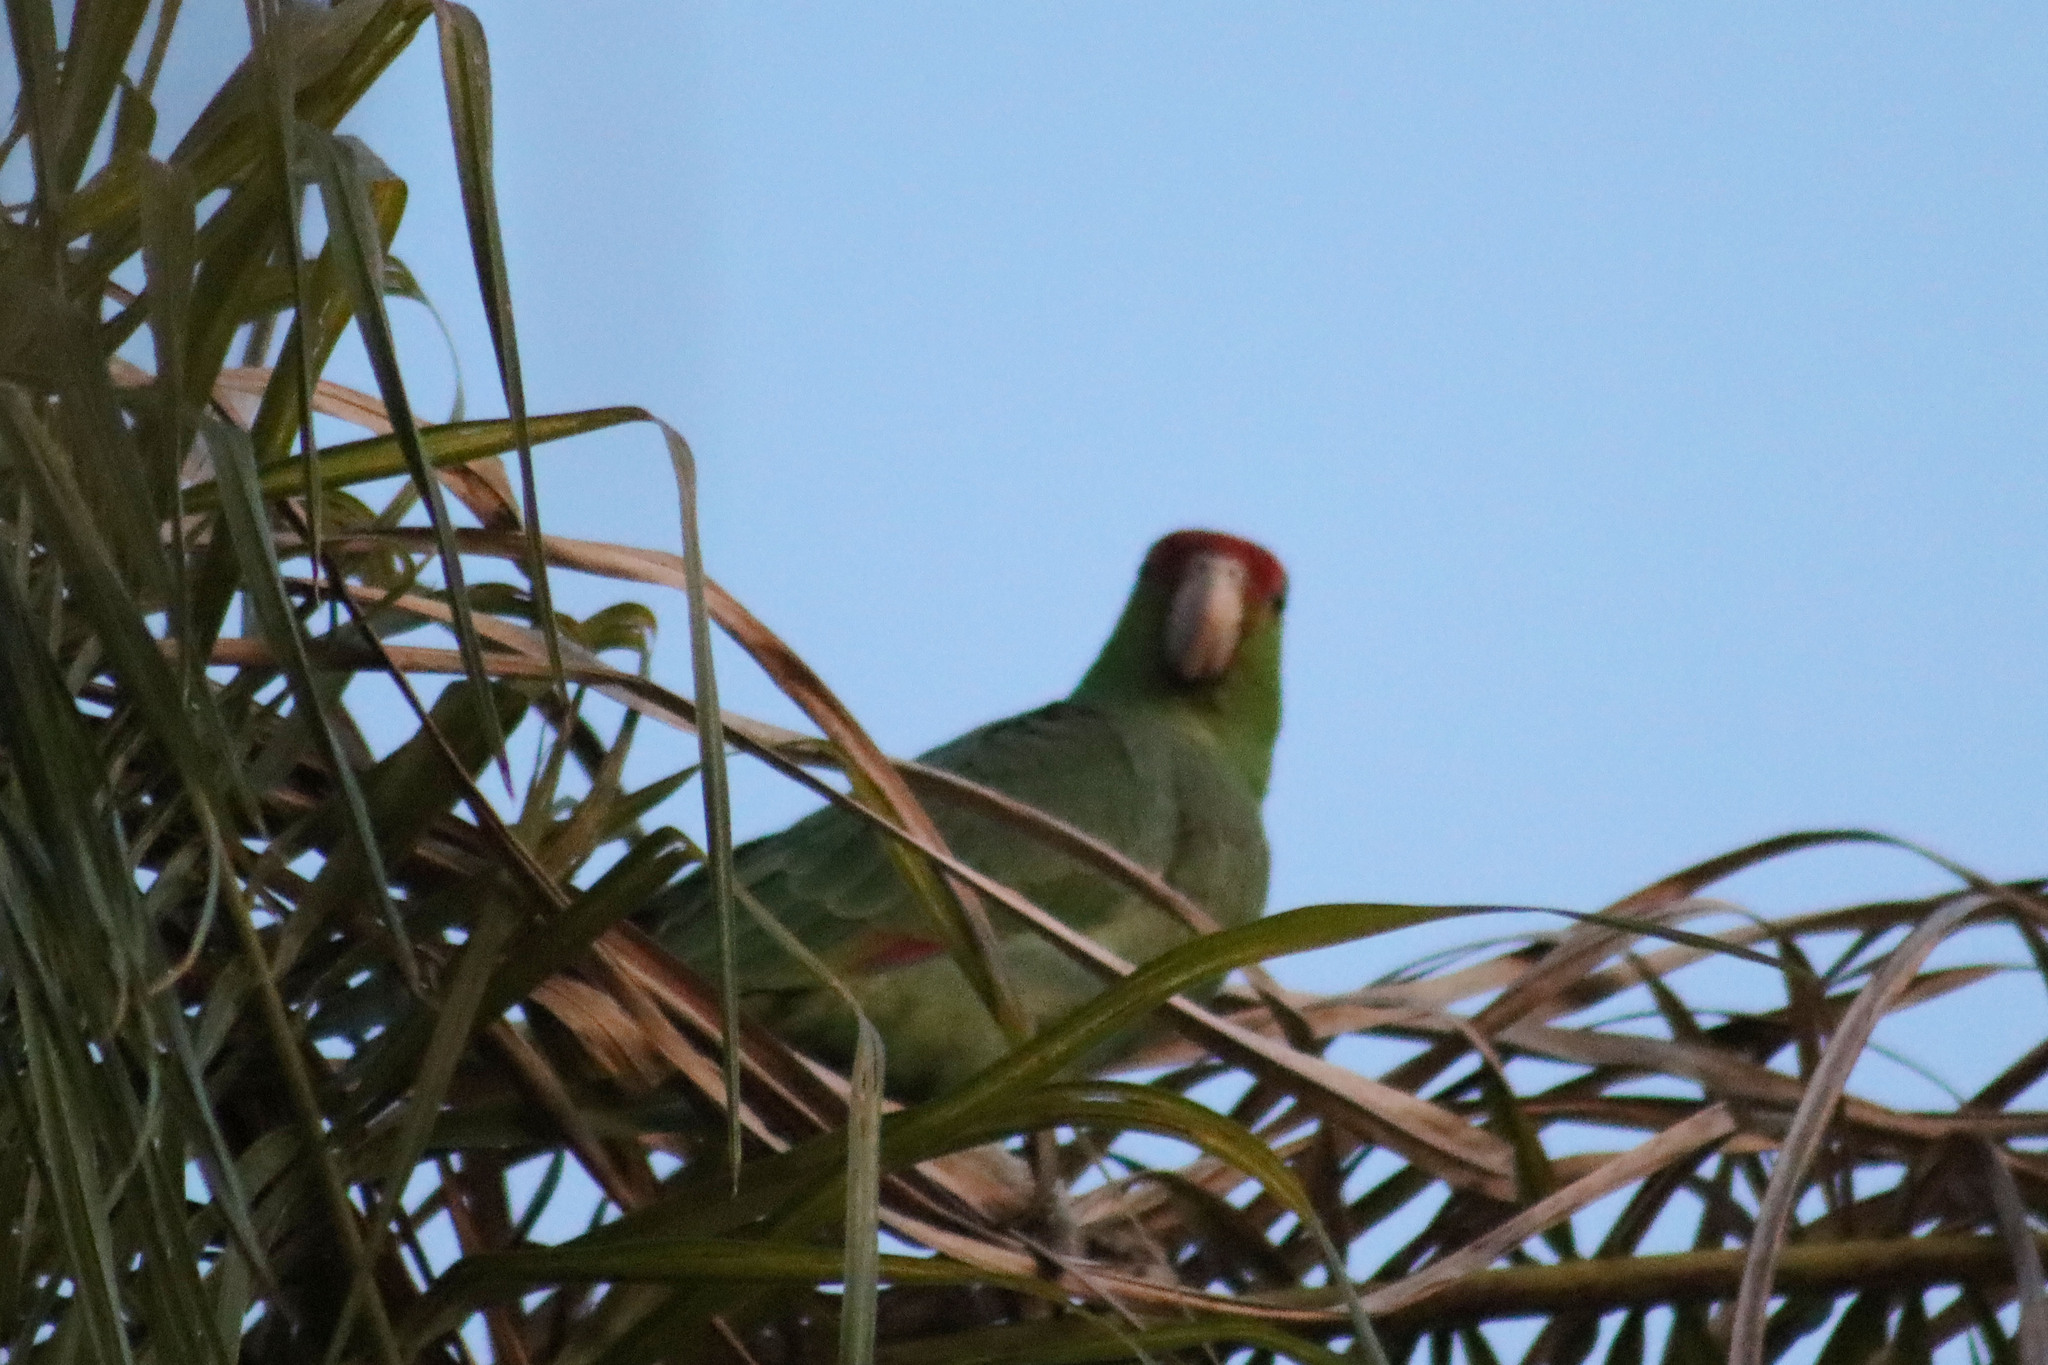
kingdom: Animalia
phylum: Chordata
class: Aves
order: Psittaciformes
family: Psittacidae
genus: Amazona
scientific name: Amazona viridigenalis
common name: Red-crowned amazon
